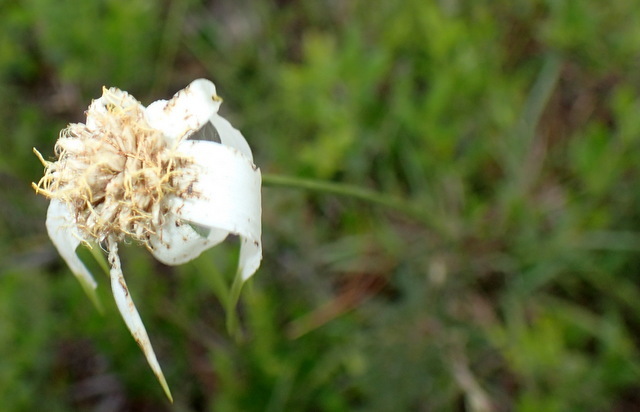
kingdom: Plantae
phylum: Tracheophyta
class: Liliopsida
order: Poales
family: Cyperaceae
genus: Rhynchospora
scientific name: Rhynchospora latifolia
